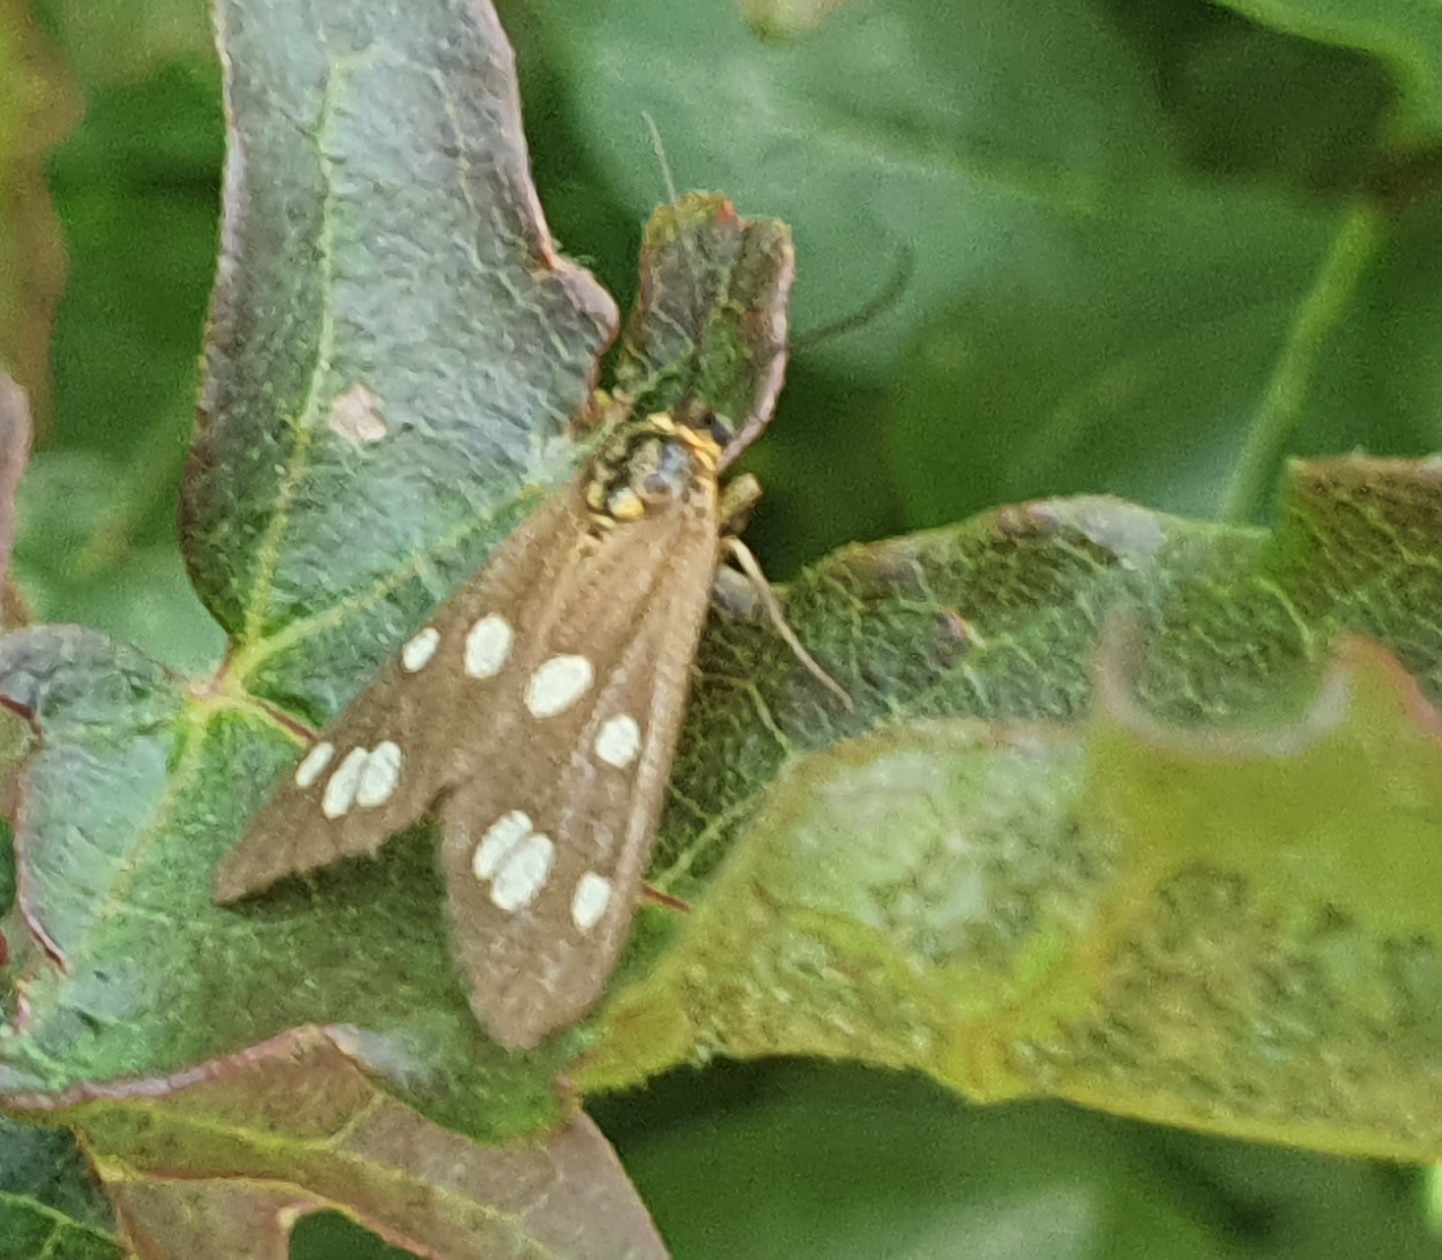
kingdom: Animalia
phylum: Arthropoda
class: Insecta
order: Lepidoptera
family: Erebidae
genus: Dysauxes
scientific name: Dysauxes punctata
